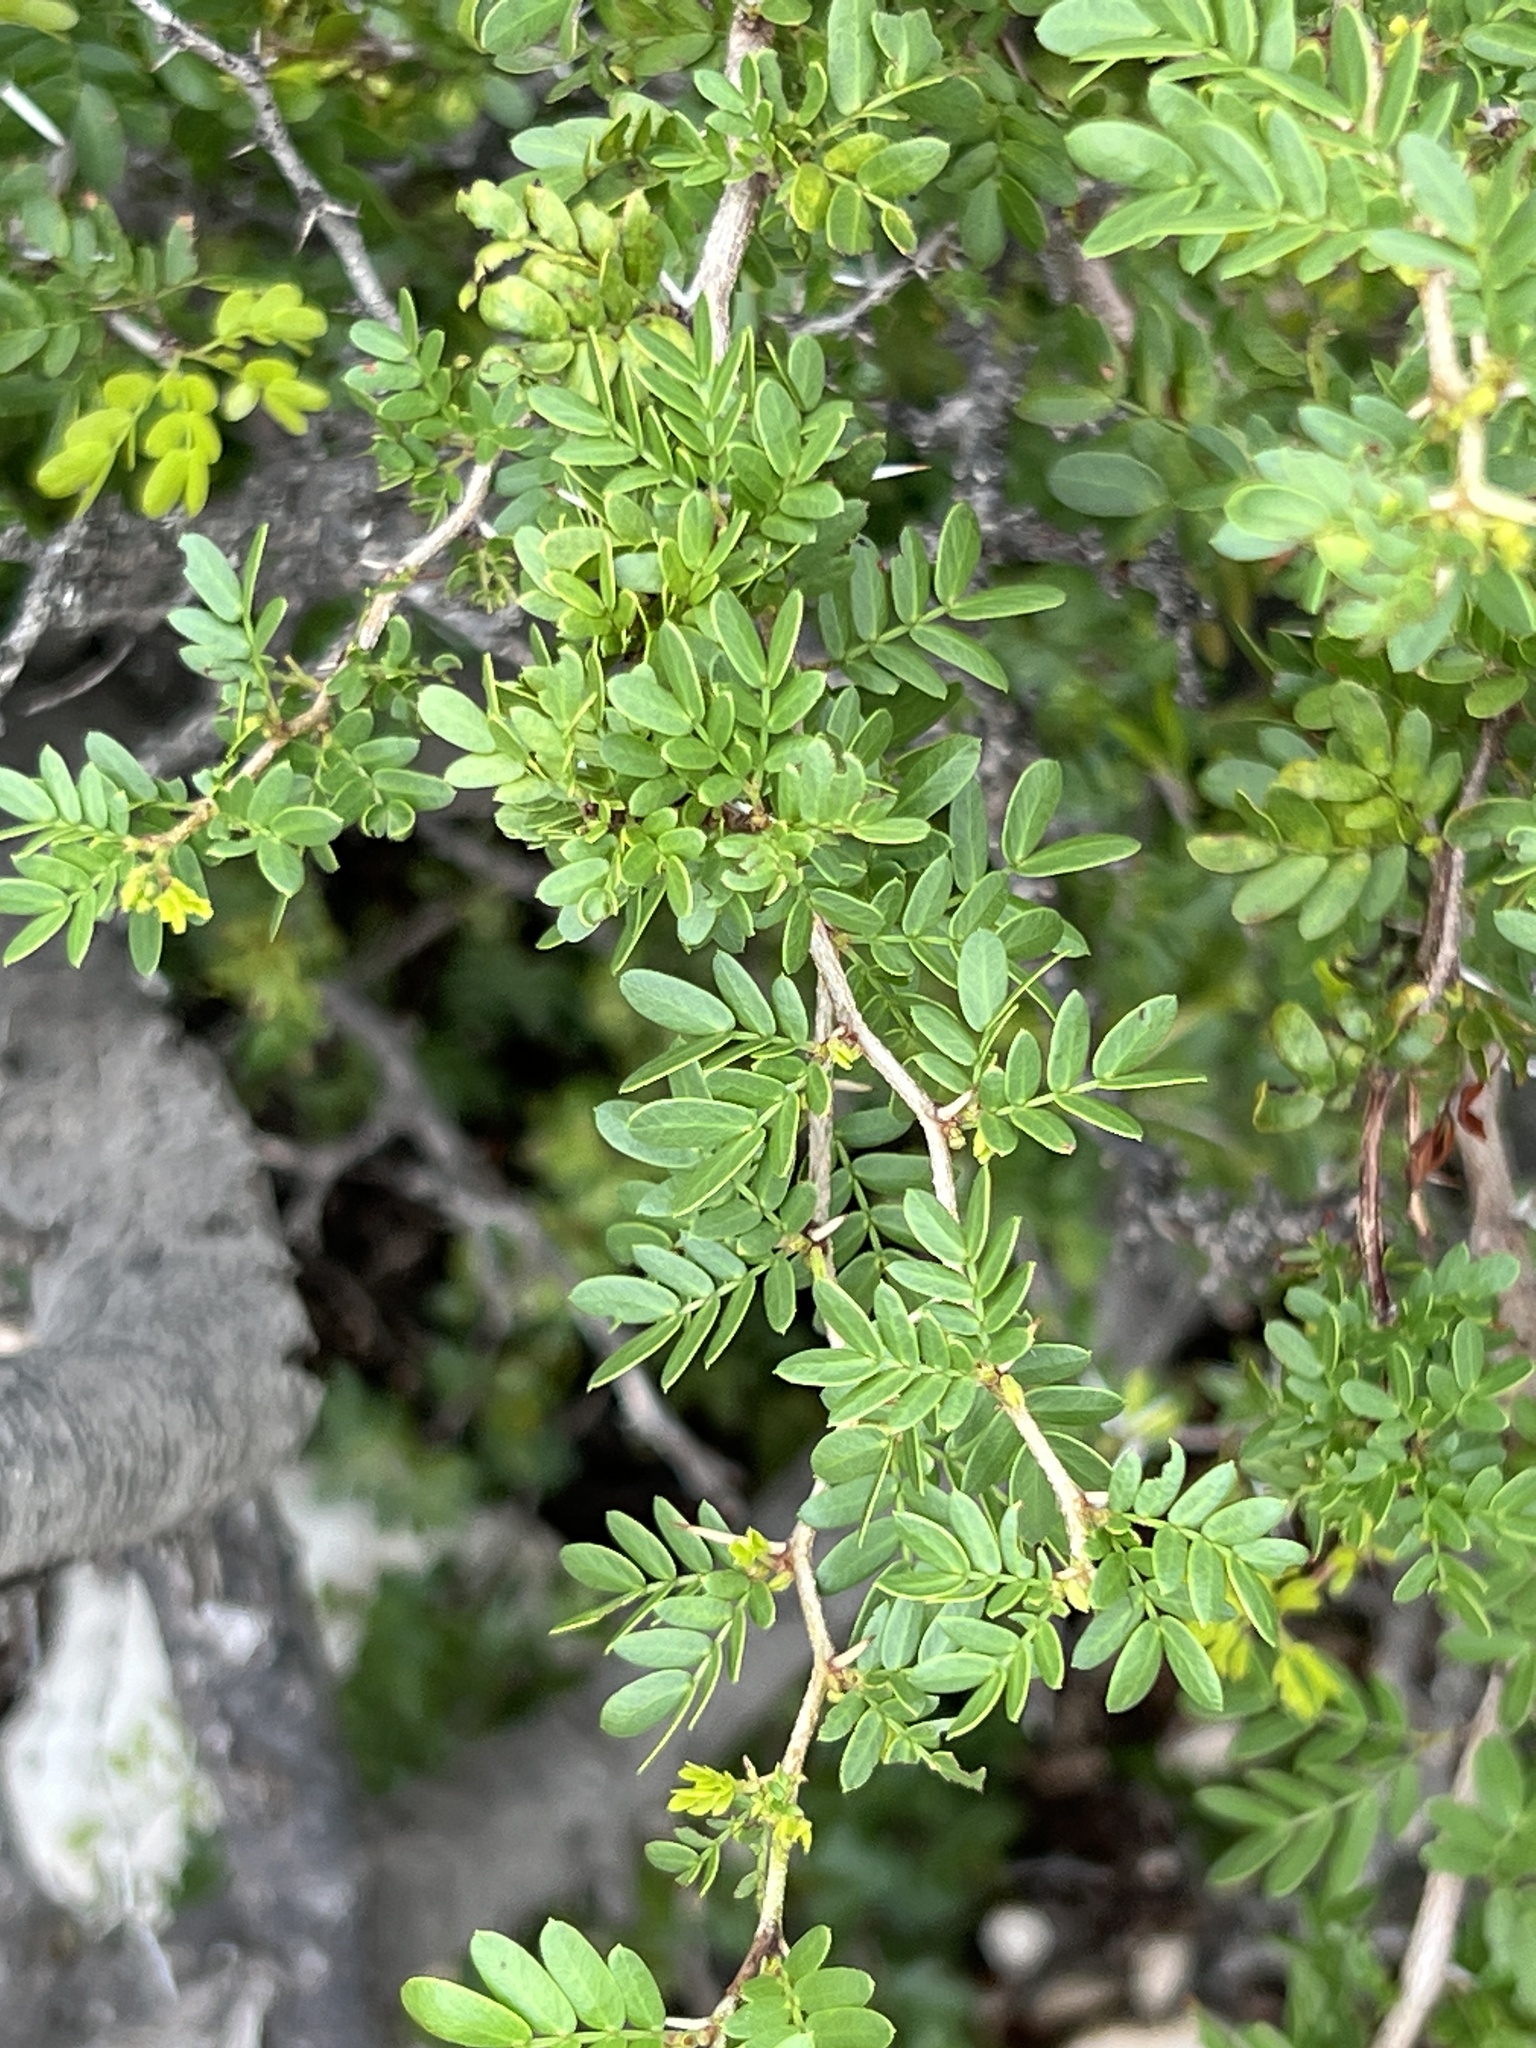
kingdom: Plantae
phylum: Tracheophyta
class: Magnoliopsida
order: Fabales
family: Fabaceae
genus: Vachellia
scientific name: Vachellia rigidula
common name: Blackbrush
